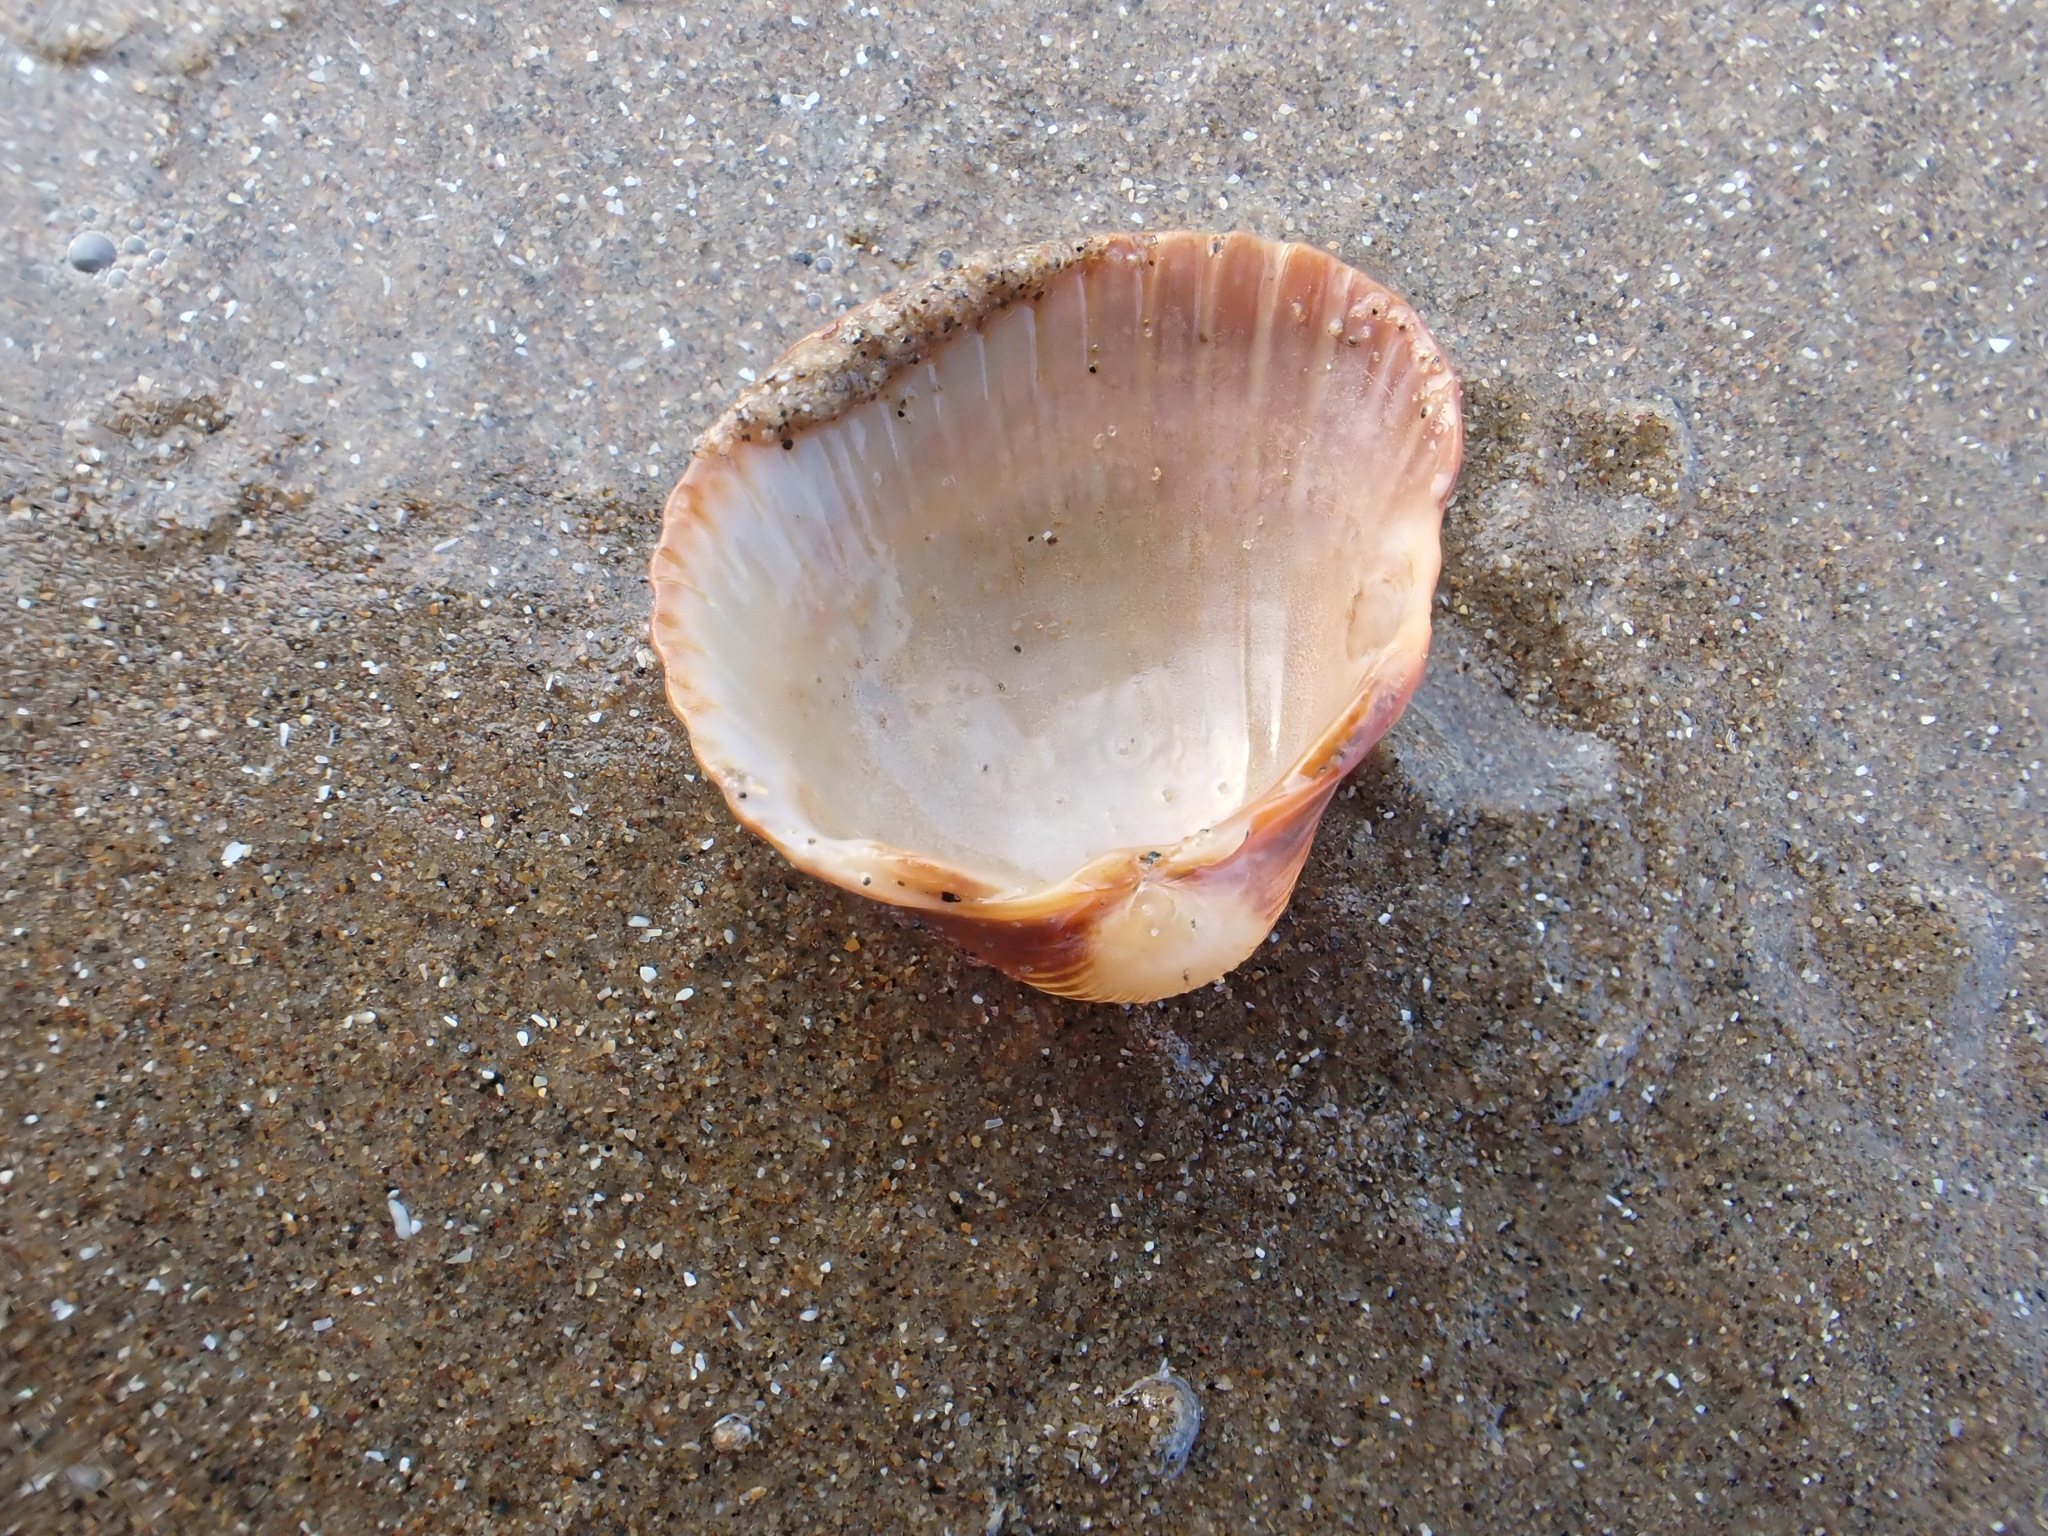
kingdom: Animalia
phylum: Mollusca
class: Bivalvia
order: Cardiida
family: Cardiidae
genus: Cerastoderma
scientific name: Cerastoderma edule
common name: Common cockle
